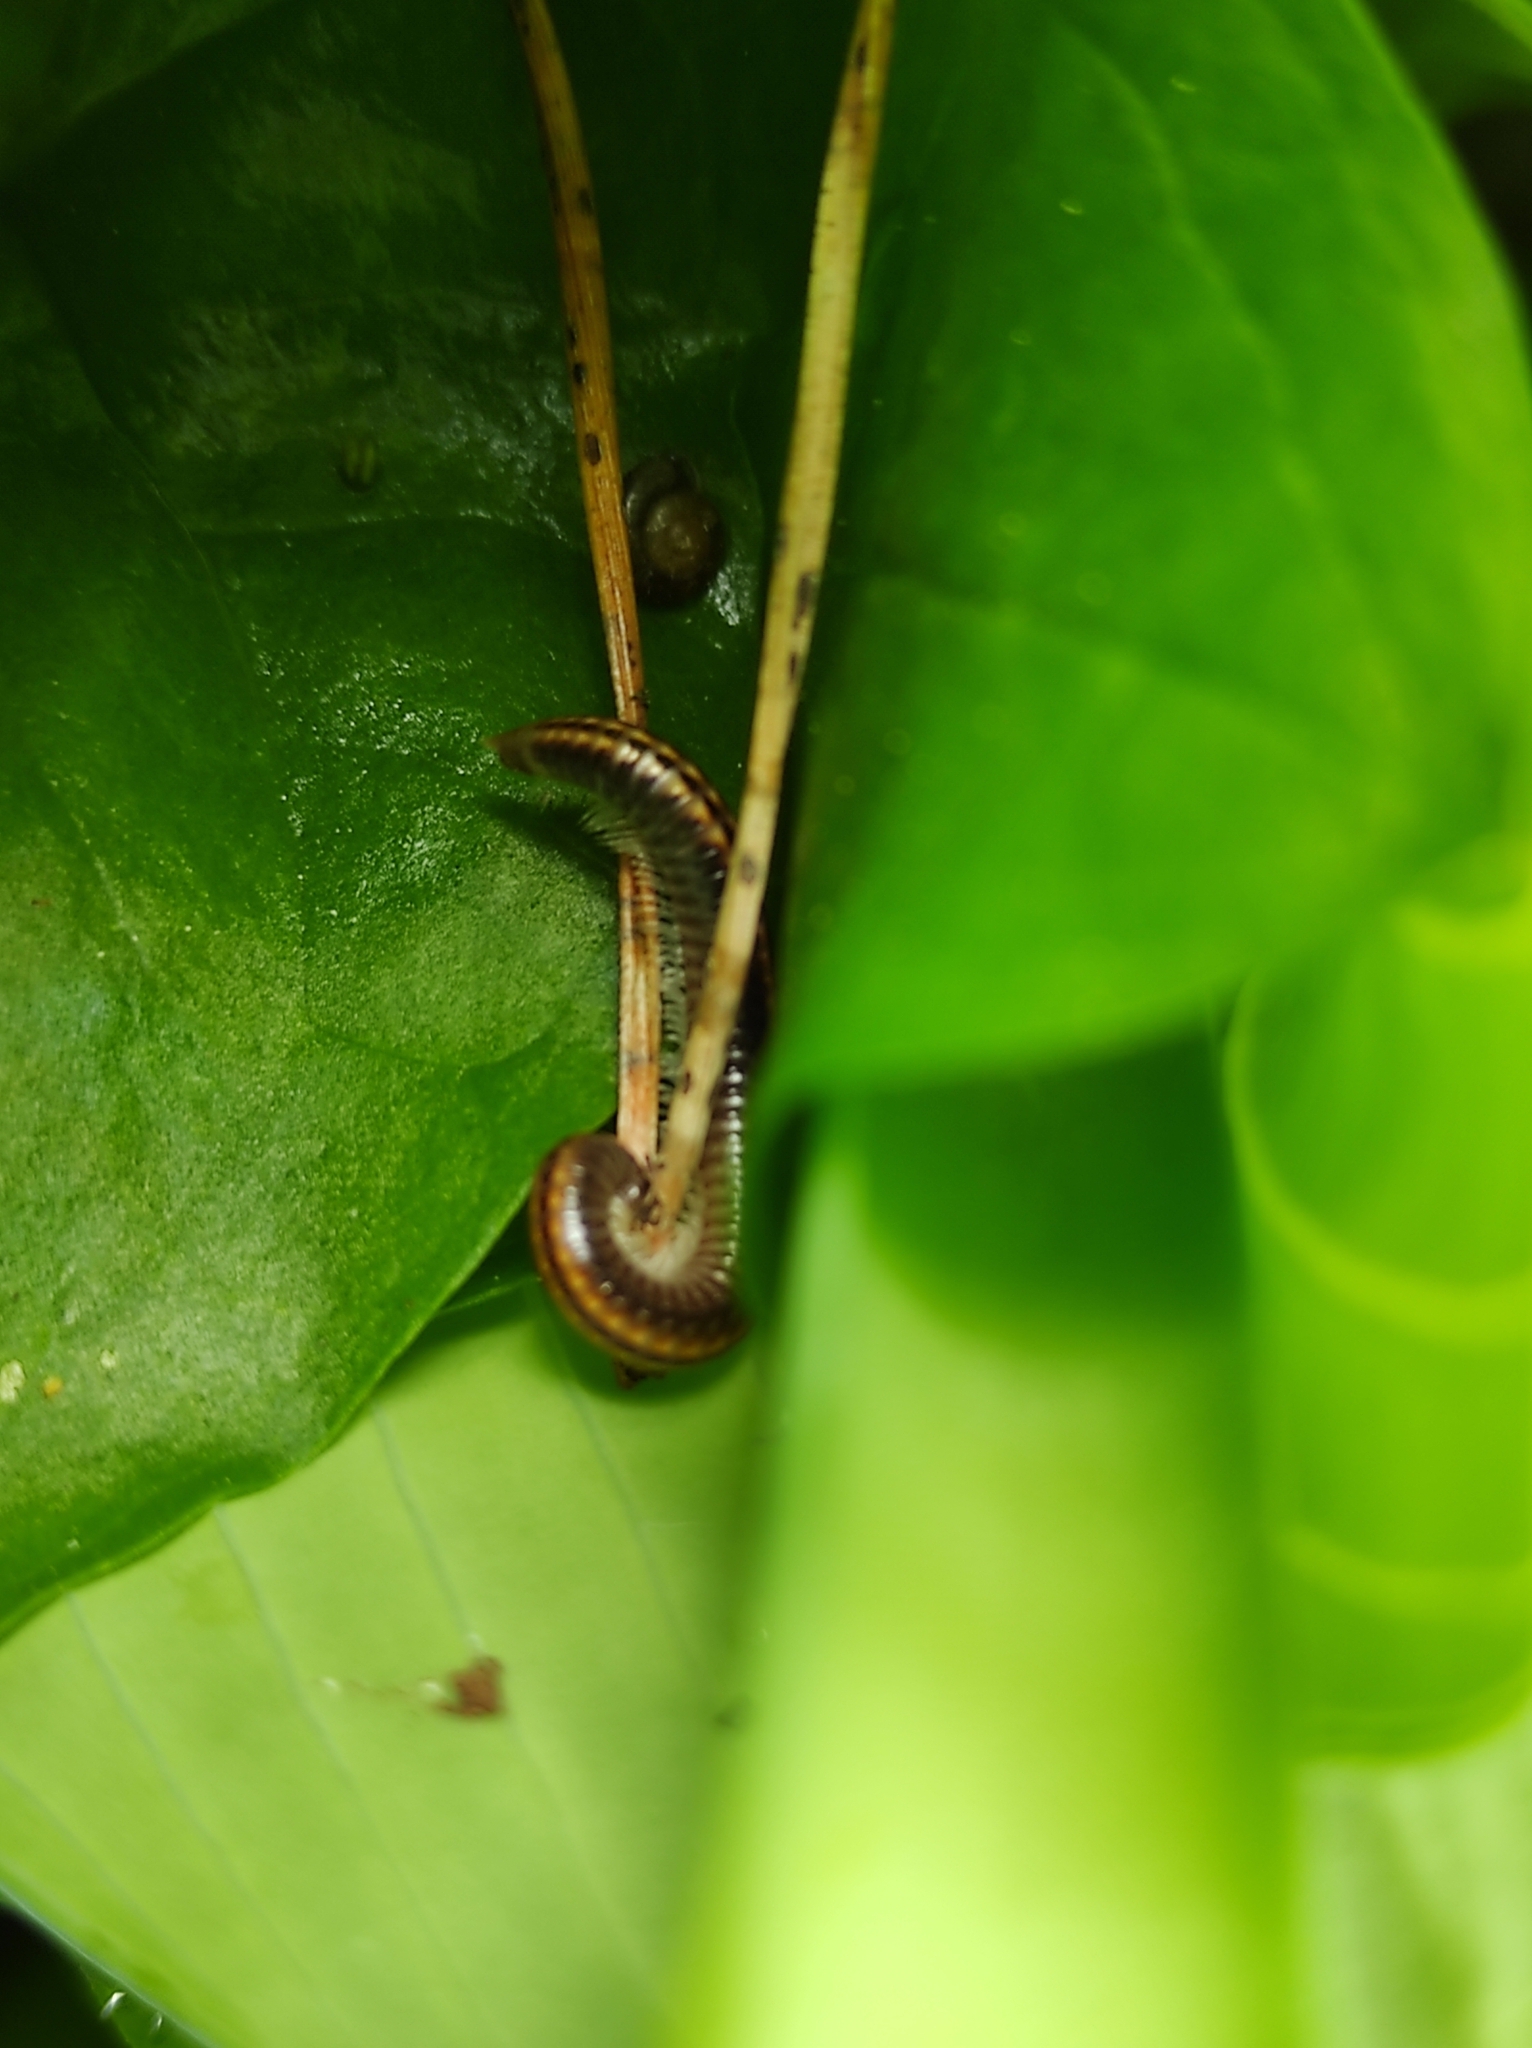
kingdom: Animalia
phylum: Arthropoda
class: Diplopoda
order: Julida
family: Julidae
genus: Ommatoiulus
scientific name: Ommatoiulus sabulosus
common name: Striped millipede
